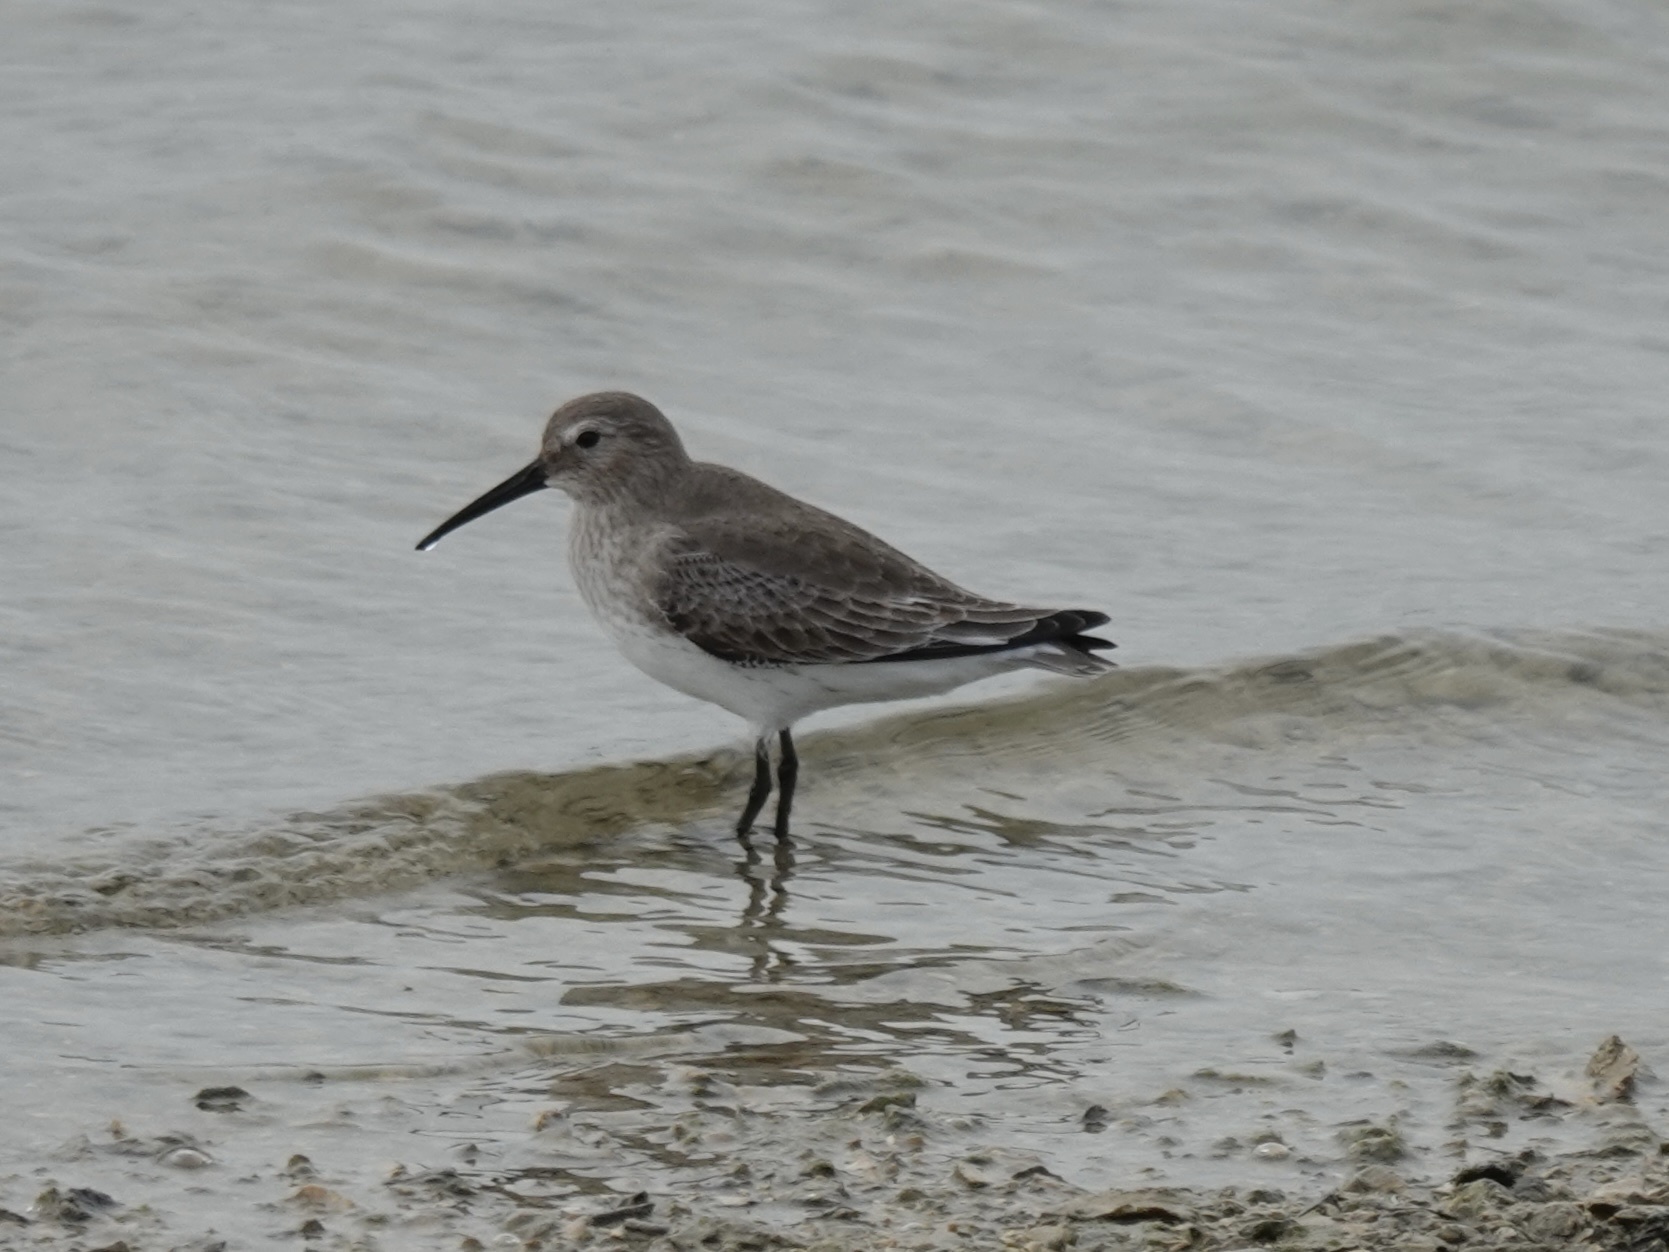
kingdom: Animalia
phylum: Chordata
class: Aves
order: Charadriiformes
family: Scolopacidae
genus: Calidris
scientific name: Calidris alpina
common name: Dunlin
